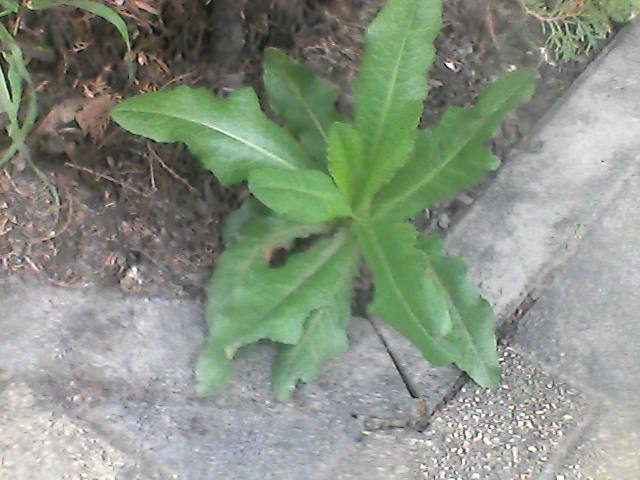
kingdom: Plantae
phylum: Tracheophyta
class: Magnoliopsida
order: Asterales
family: Asteraceae
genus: Cirsium
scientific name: Cirsium arvense
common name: Creeping thistle
